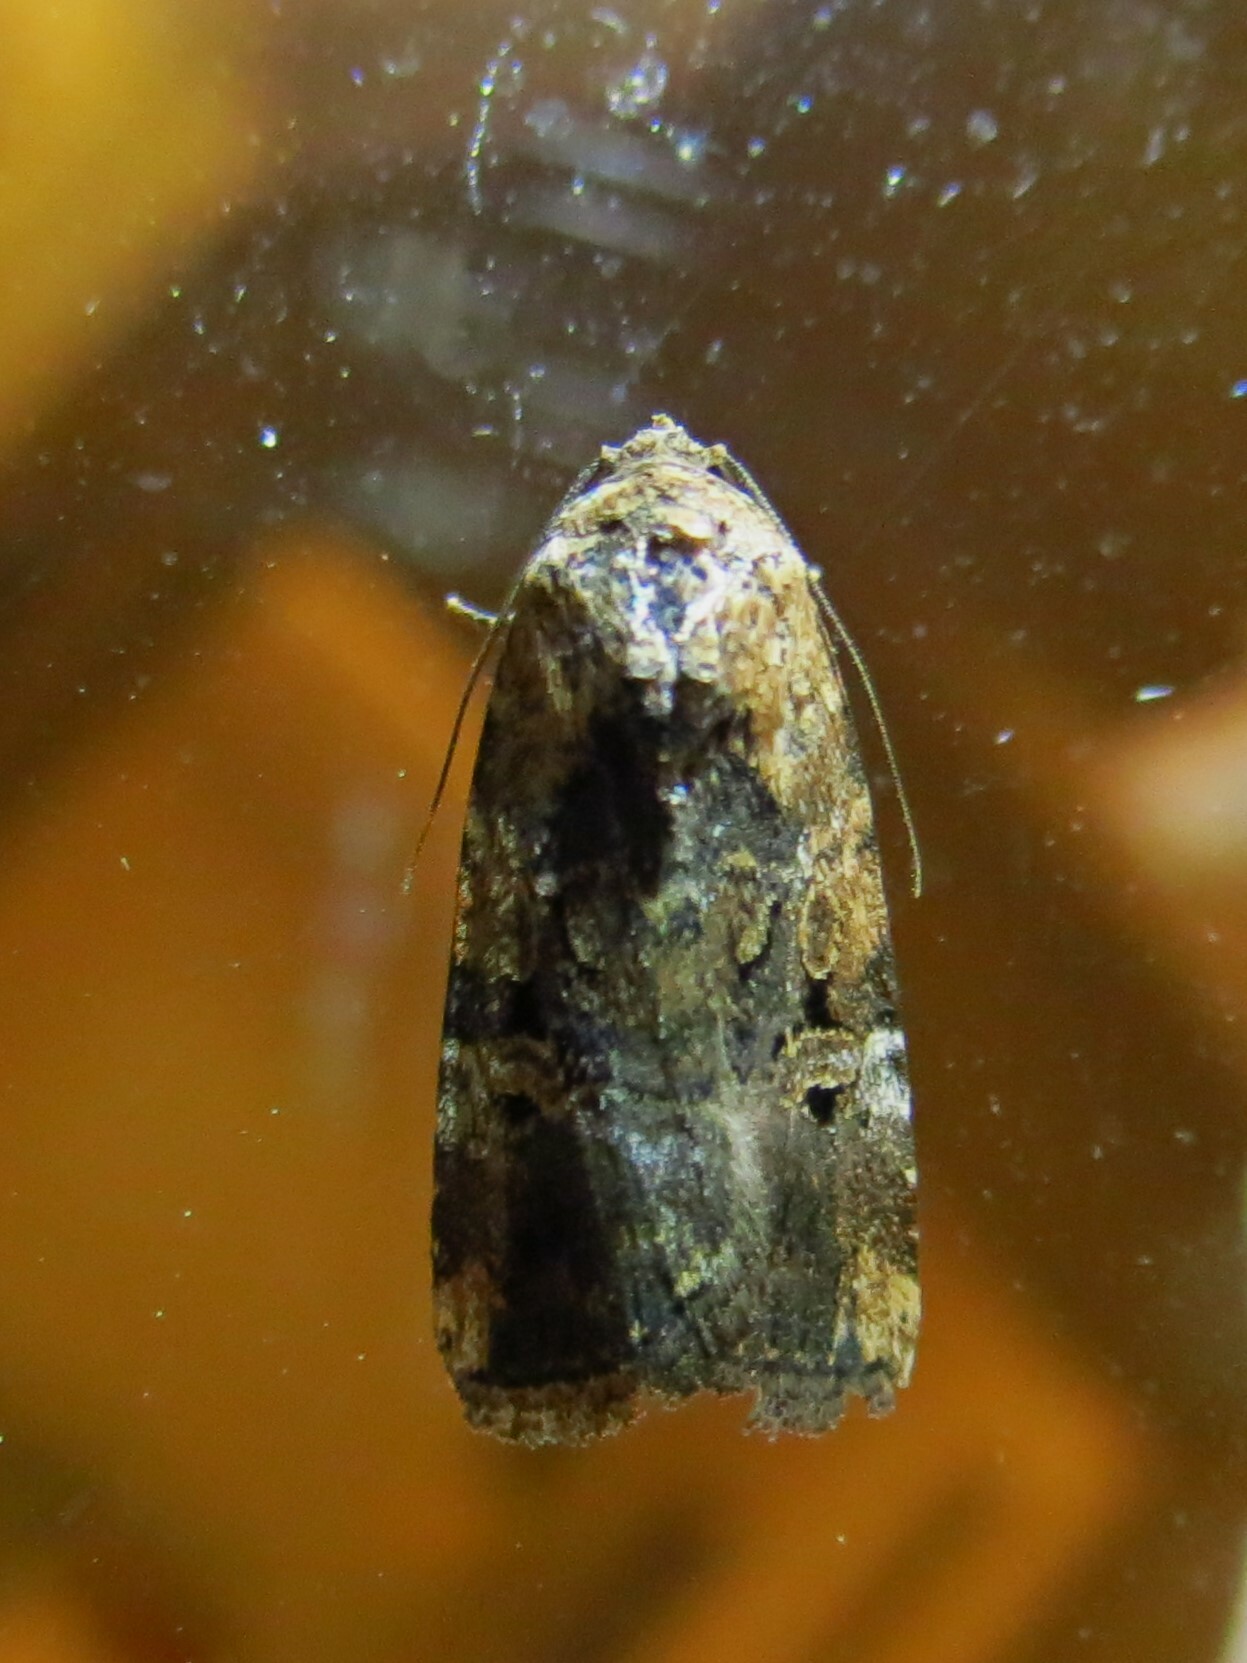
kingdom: Animalia
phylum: Arthropoda
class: Insecta
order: Lepidoptera
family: Noctuidae
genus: Elaphria
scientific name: Elaphria chalcedonia
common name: Chalcedony midget
